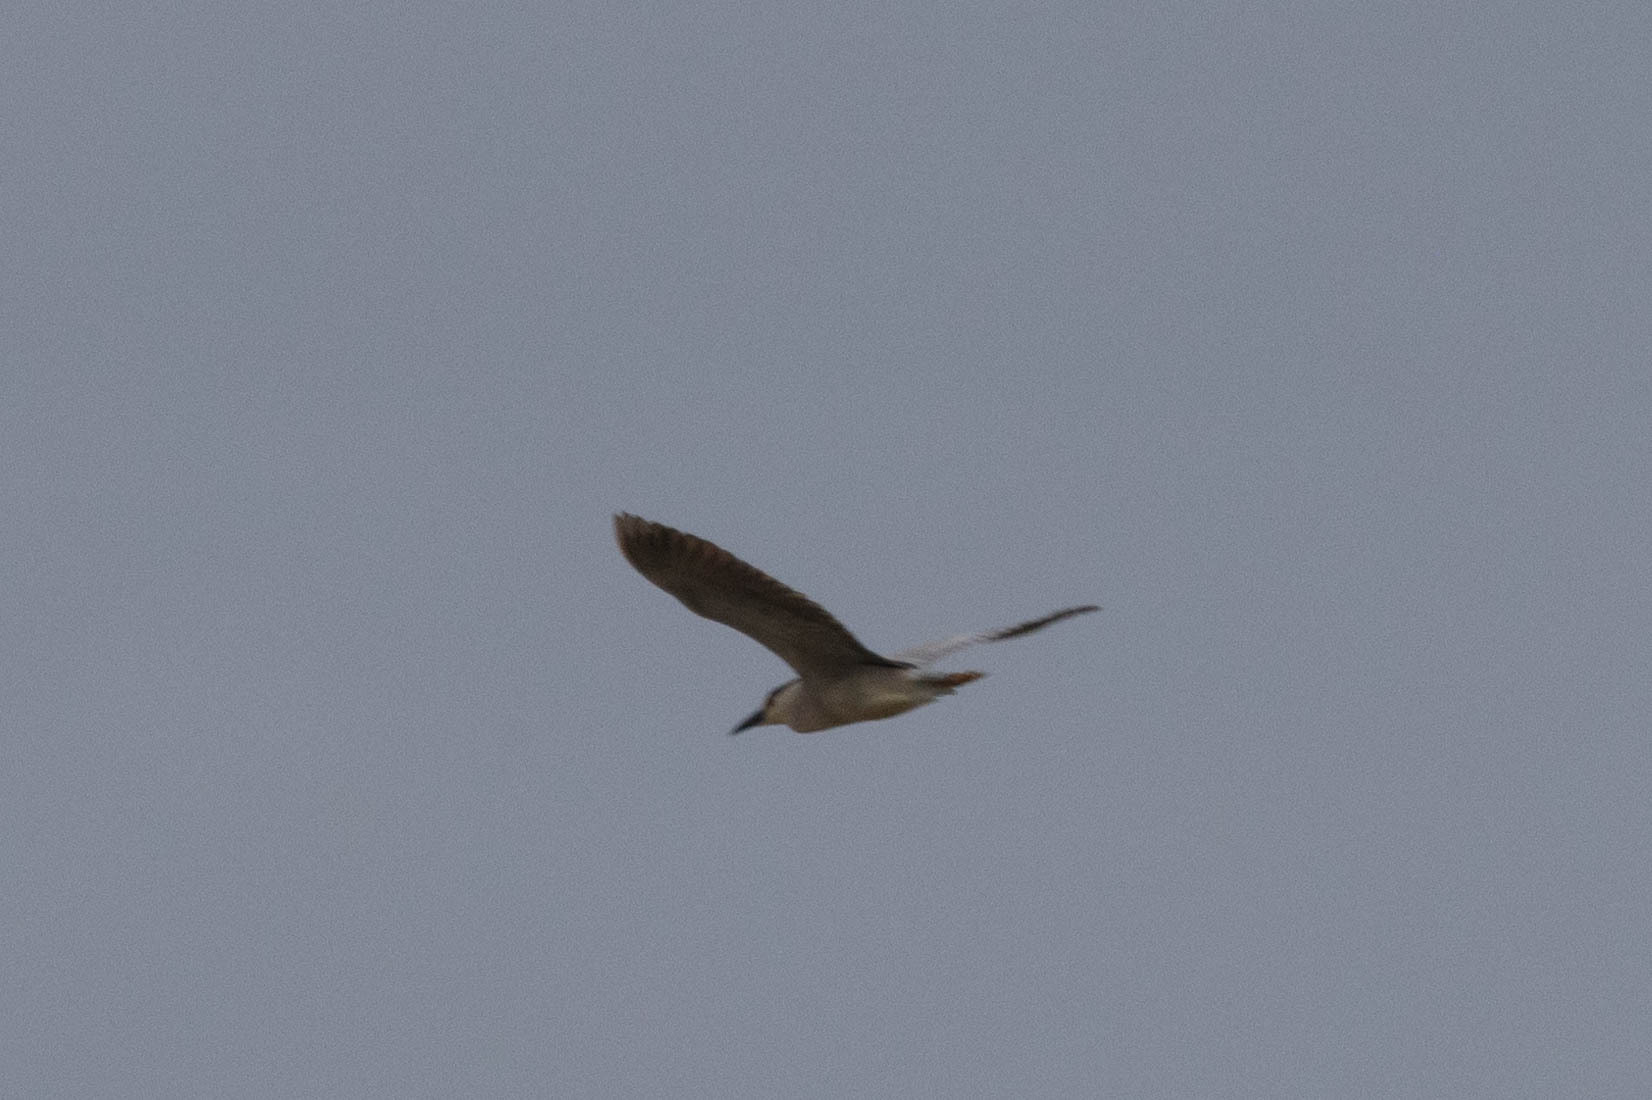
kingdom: Animalia
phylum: Chordata
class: Aves
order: Pelecaniformes
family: Ardeidae
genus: Nycticorax
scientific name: Nycticorax nycticorax
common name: Black-crowned night heron
